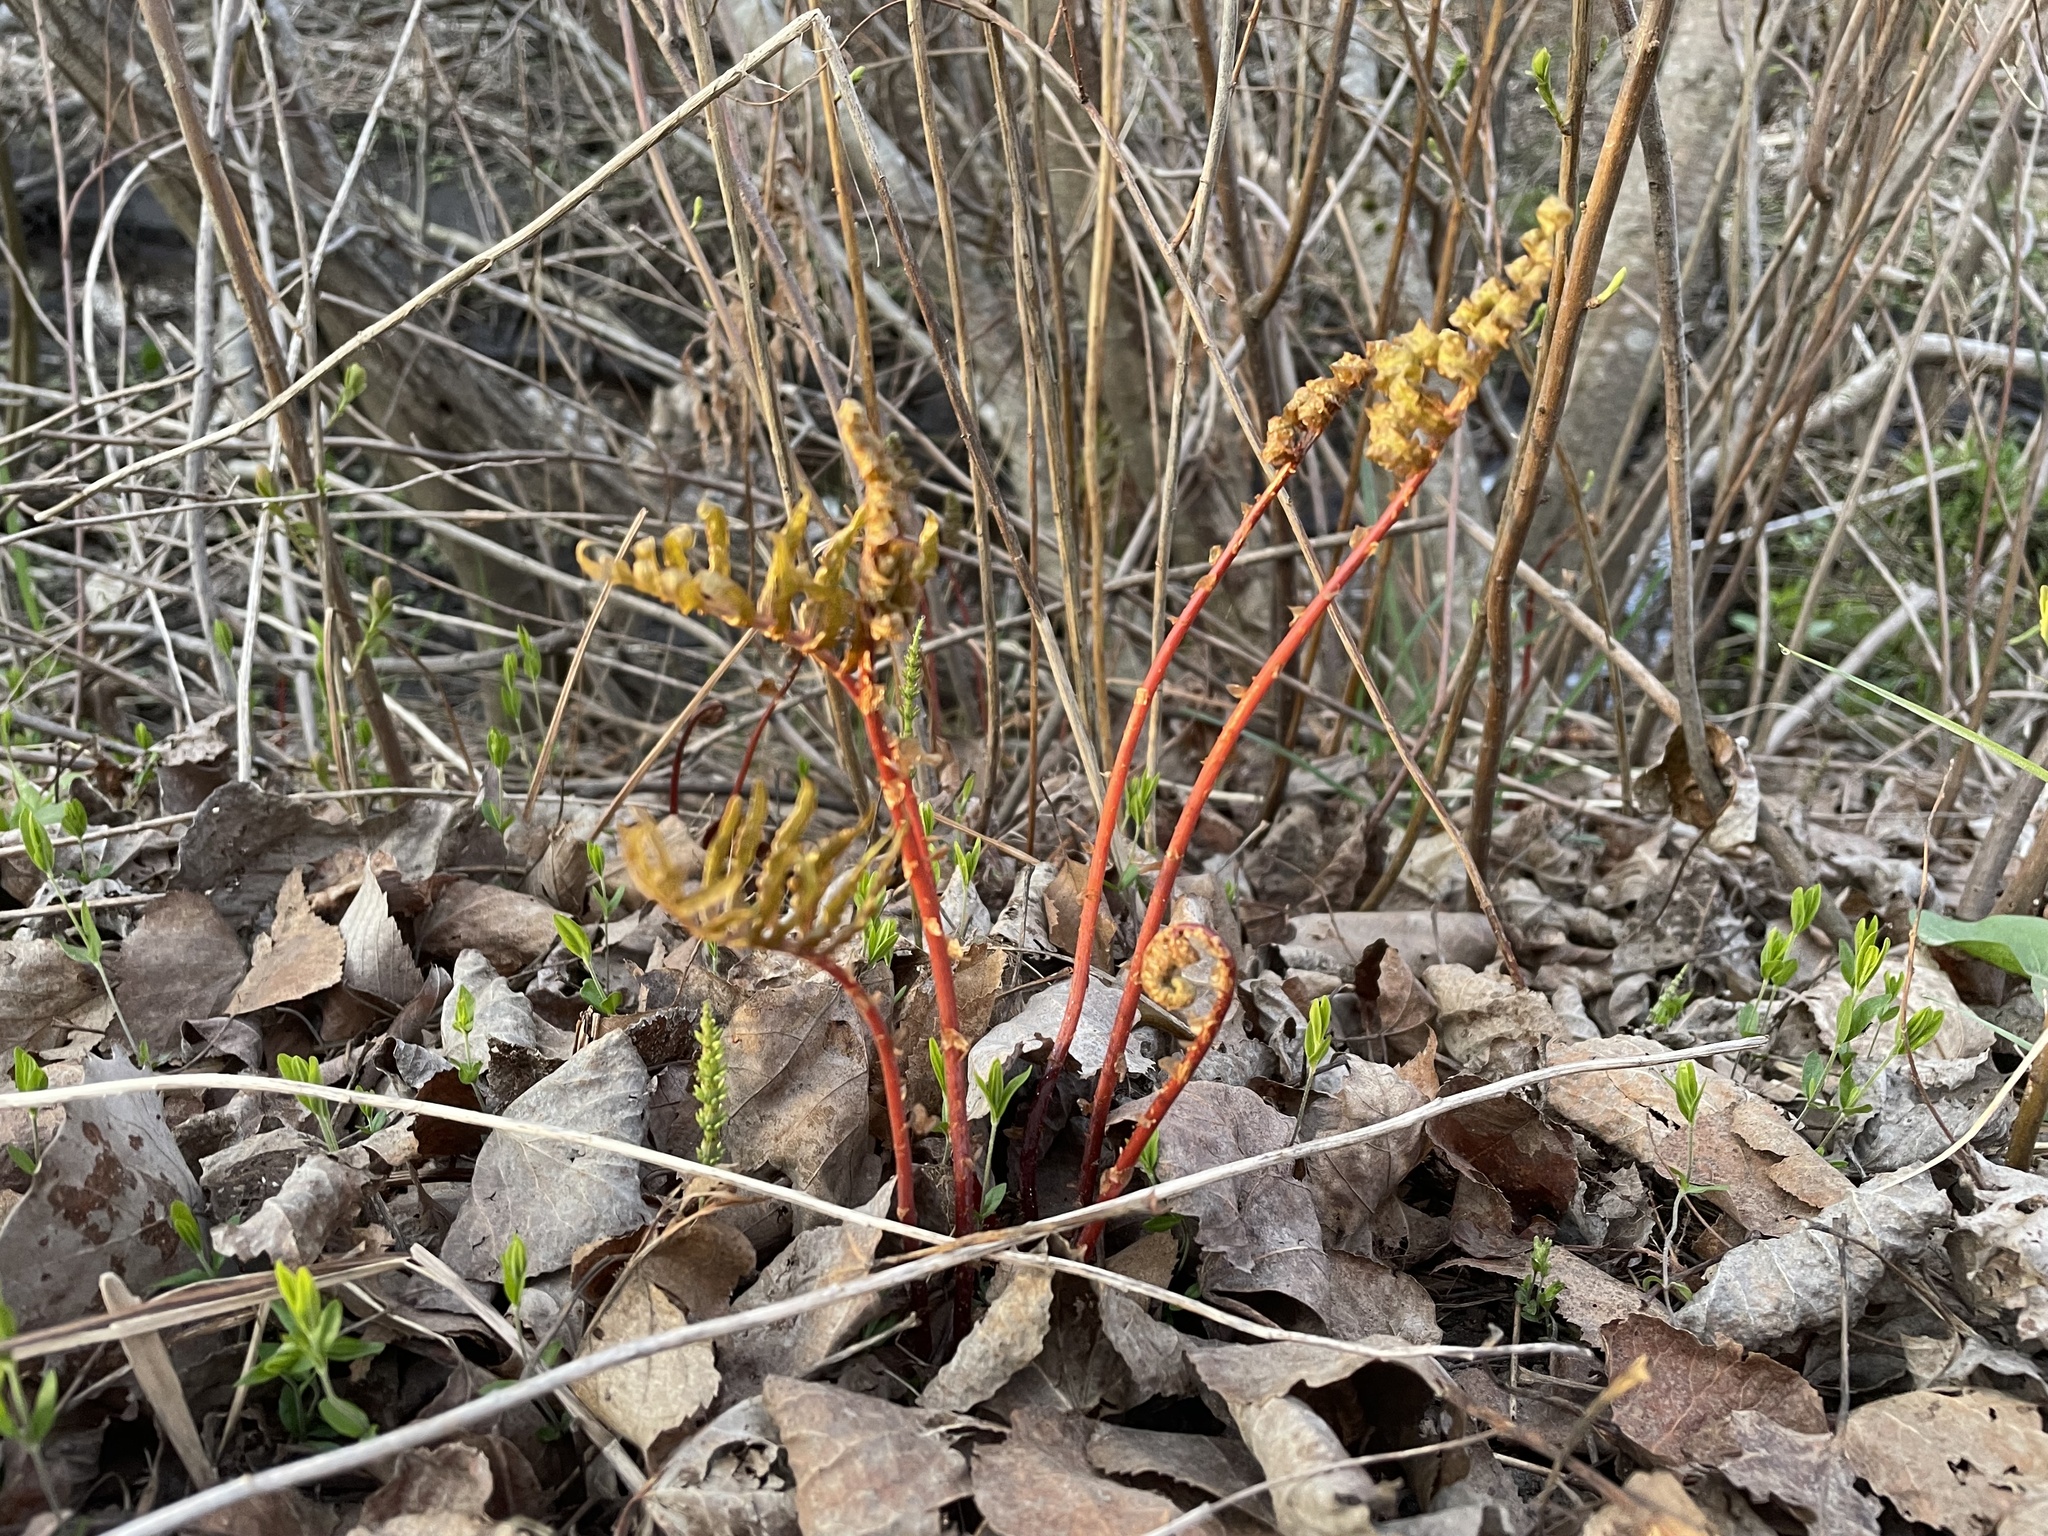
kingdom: Plantae
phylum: Tracheophyta
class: Polypodiopsida
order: Polypodiales
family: Onocleaceae
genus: Onoclea
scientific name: Onoclea sensibilis
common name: Sensitive fern
